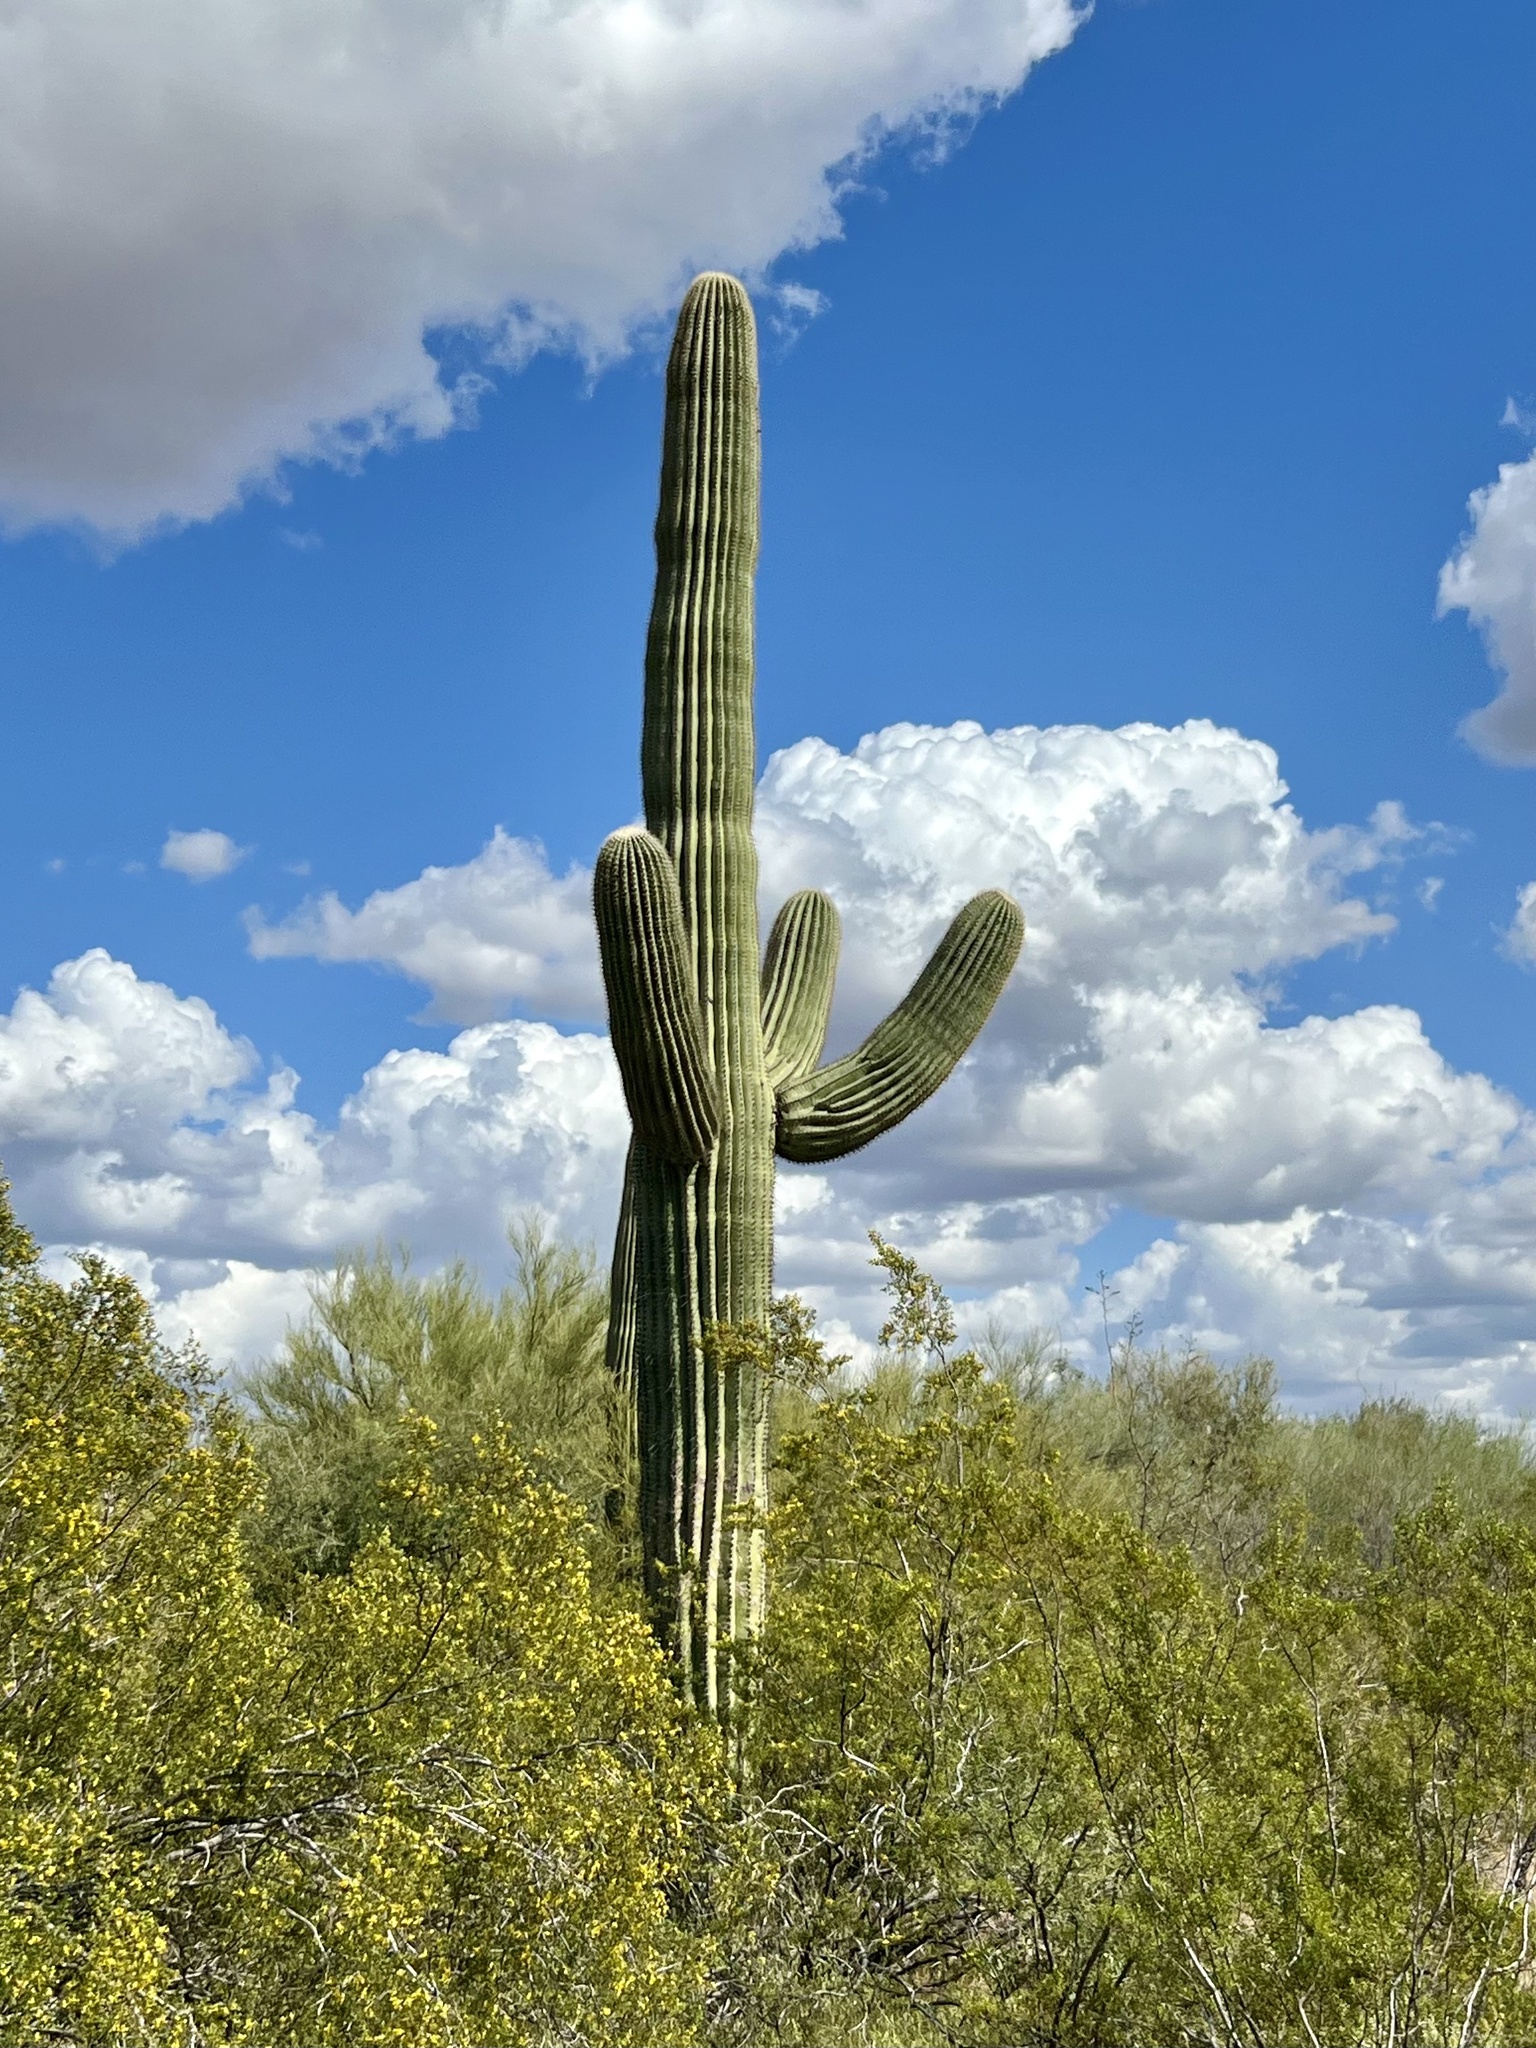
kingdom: Plantae
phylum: Tracheophyta
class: Magnoliopsida
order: Caryophyllales
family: Cactaceae
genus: Carnegiea
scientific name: Carnegiea gigantea
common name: Saguaro
